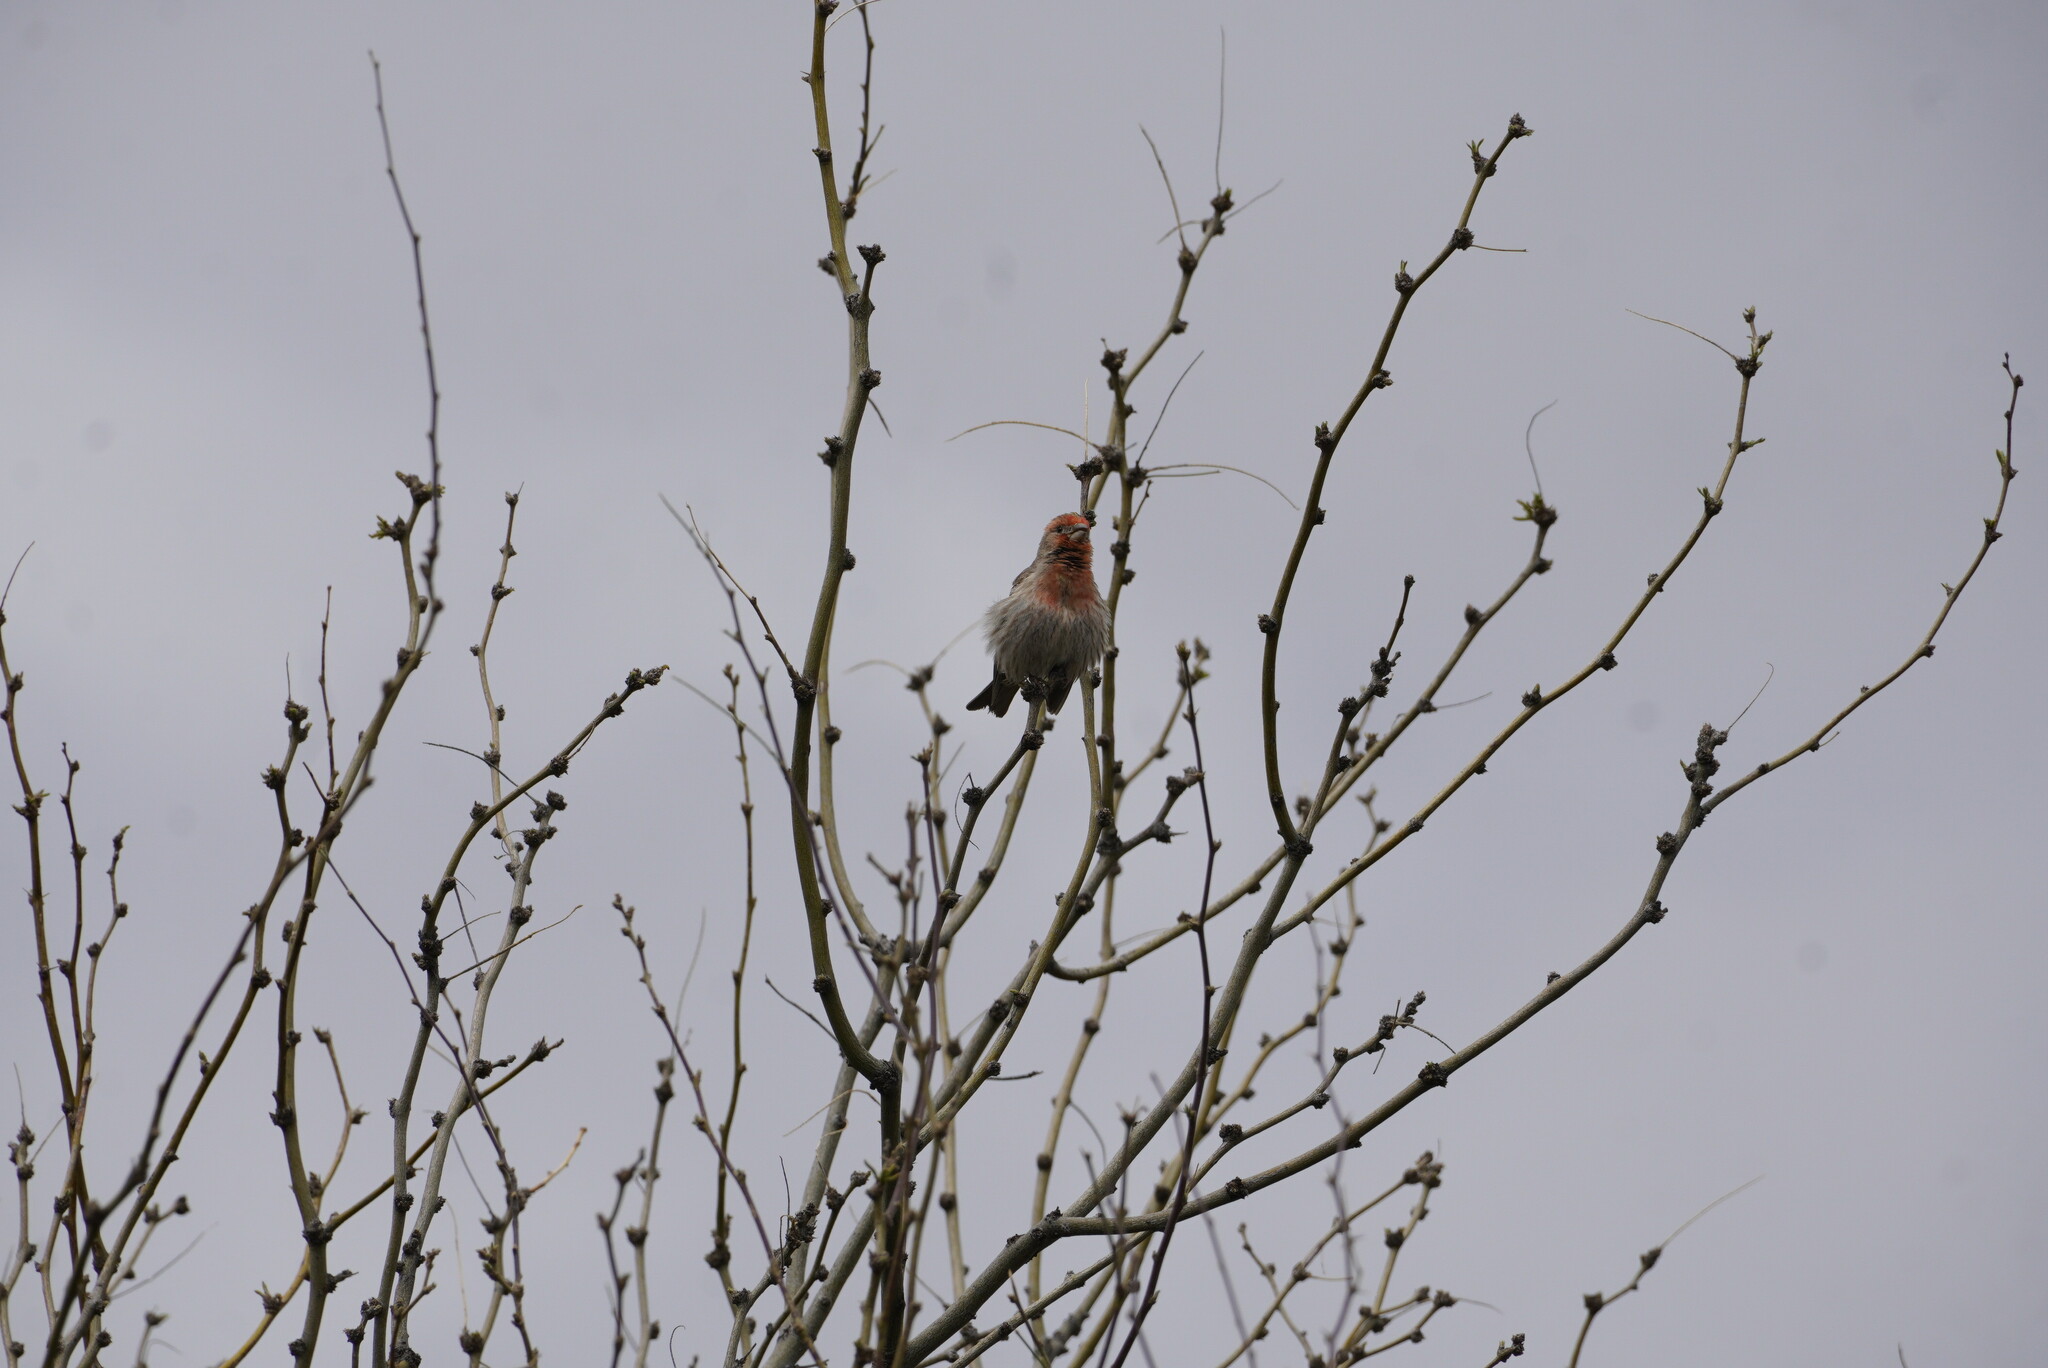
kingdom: Animalia
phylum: Chordata
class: Aves
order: Passeriformes
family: Fringillidae
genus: Haemorhous
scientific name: Haemorhous mexicanus
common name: House finch
